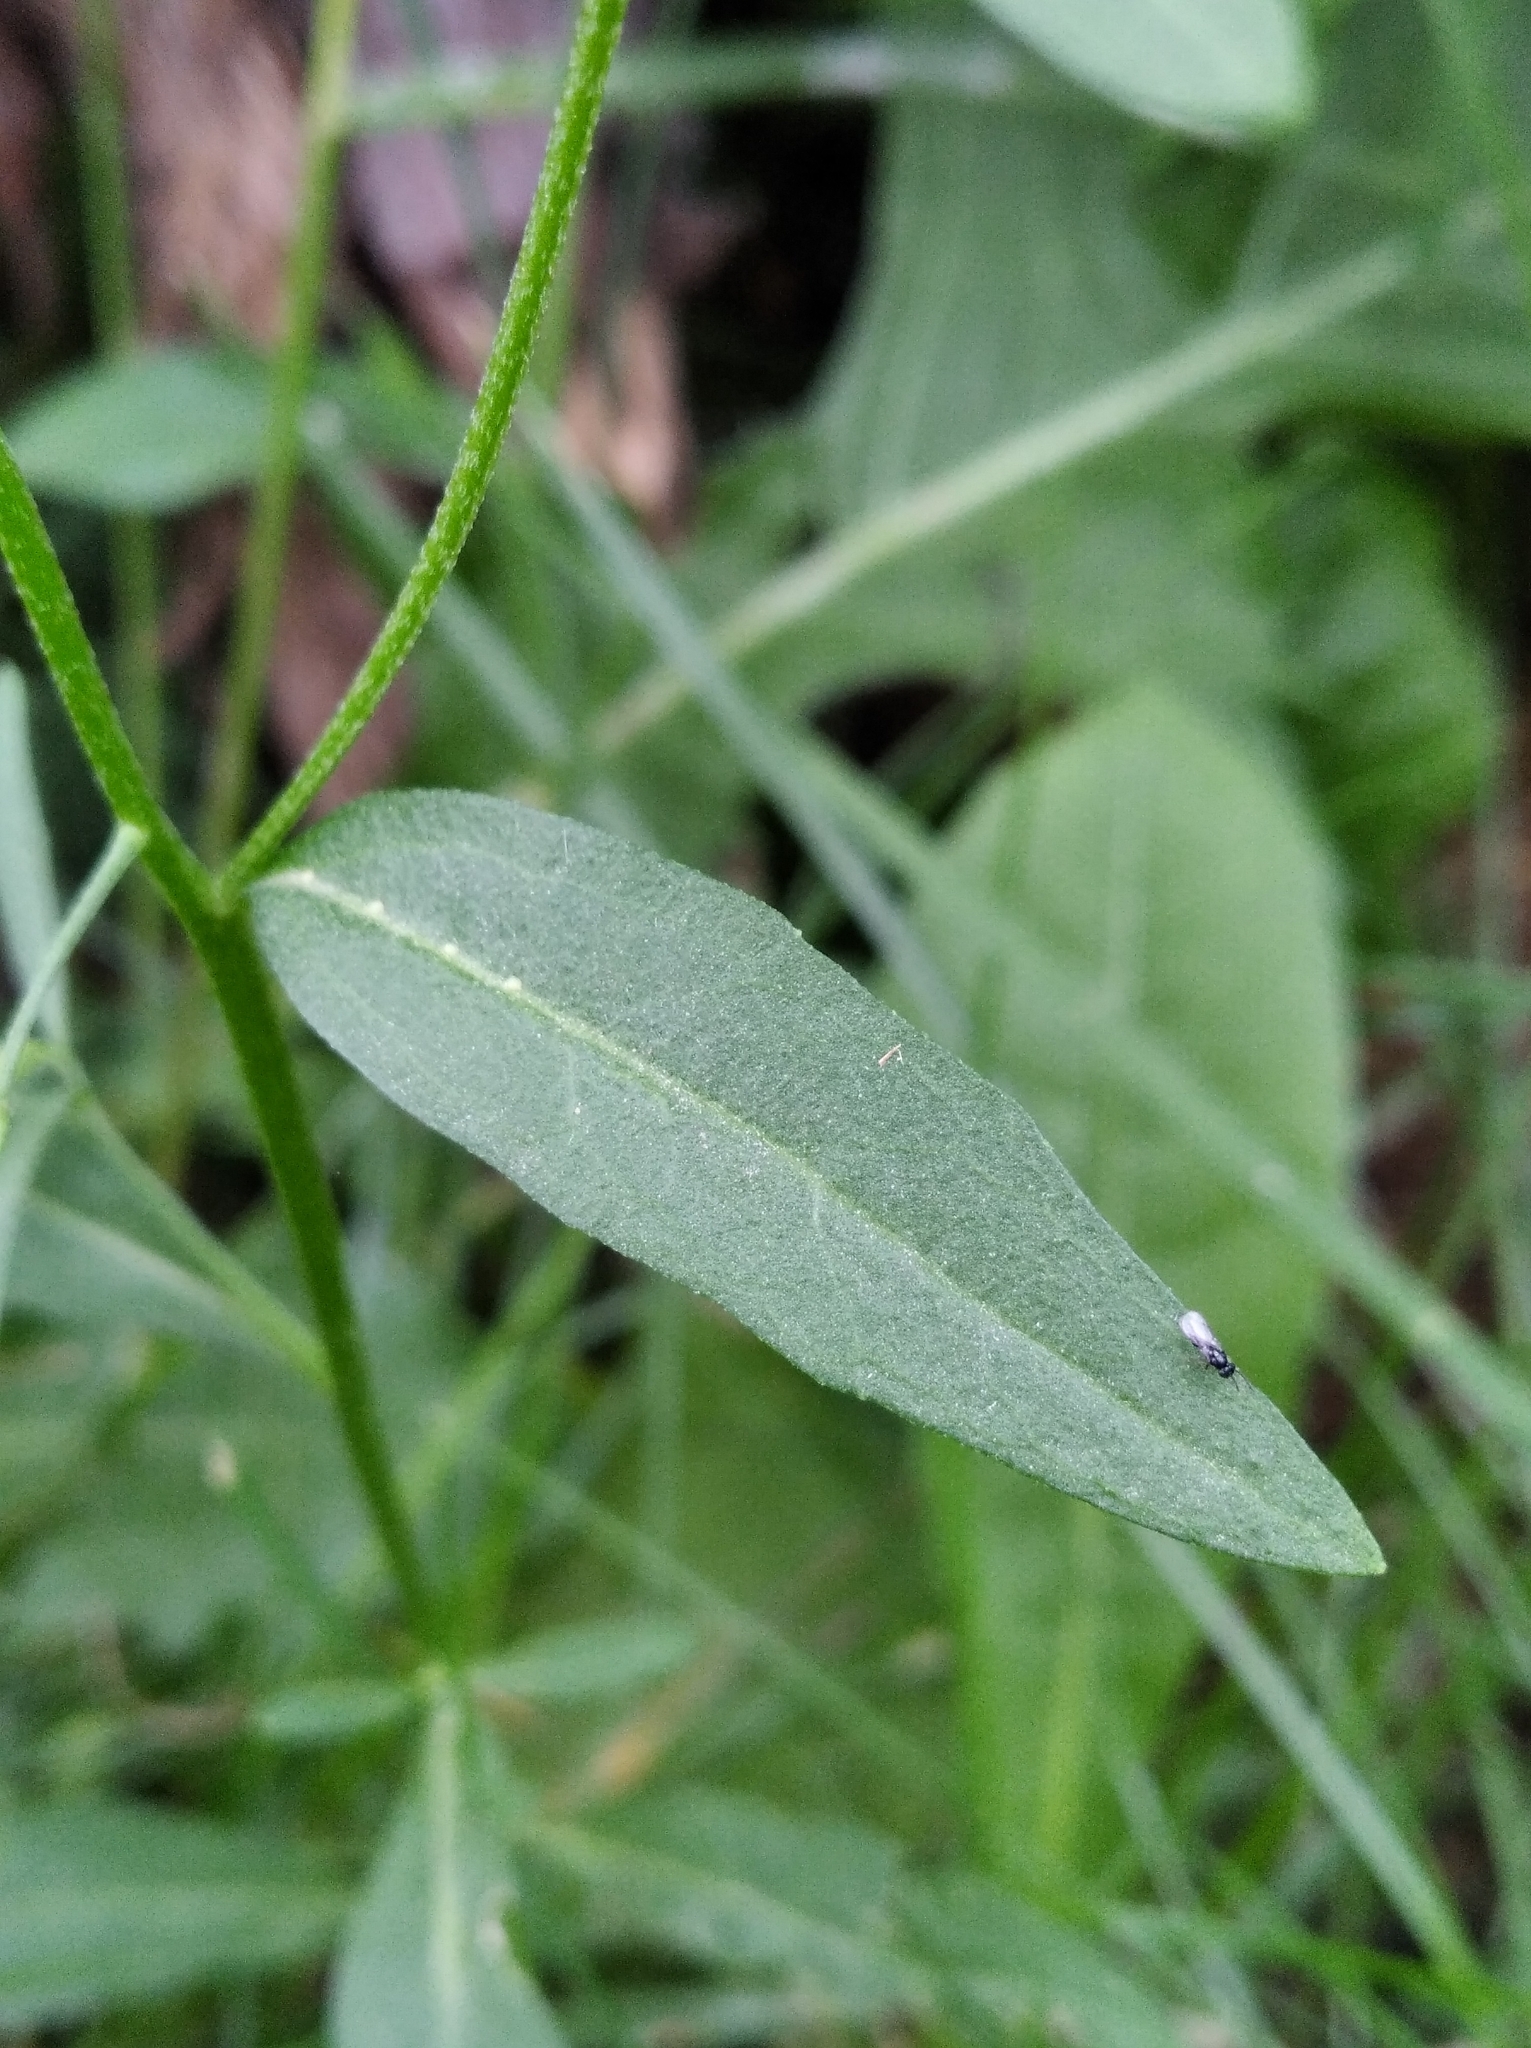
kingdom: Plantae
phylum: Tracheophyta
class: Magnoliopsida
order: Brassicales
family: Brassicaceae
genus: Erysimum
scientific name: Erysimum cheiranthoides
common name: Treacle mustard
